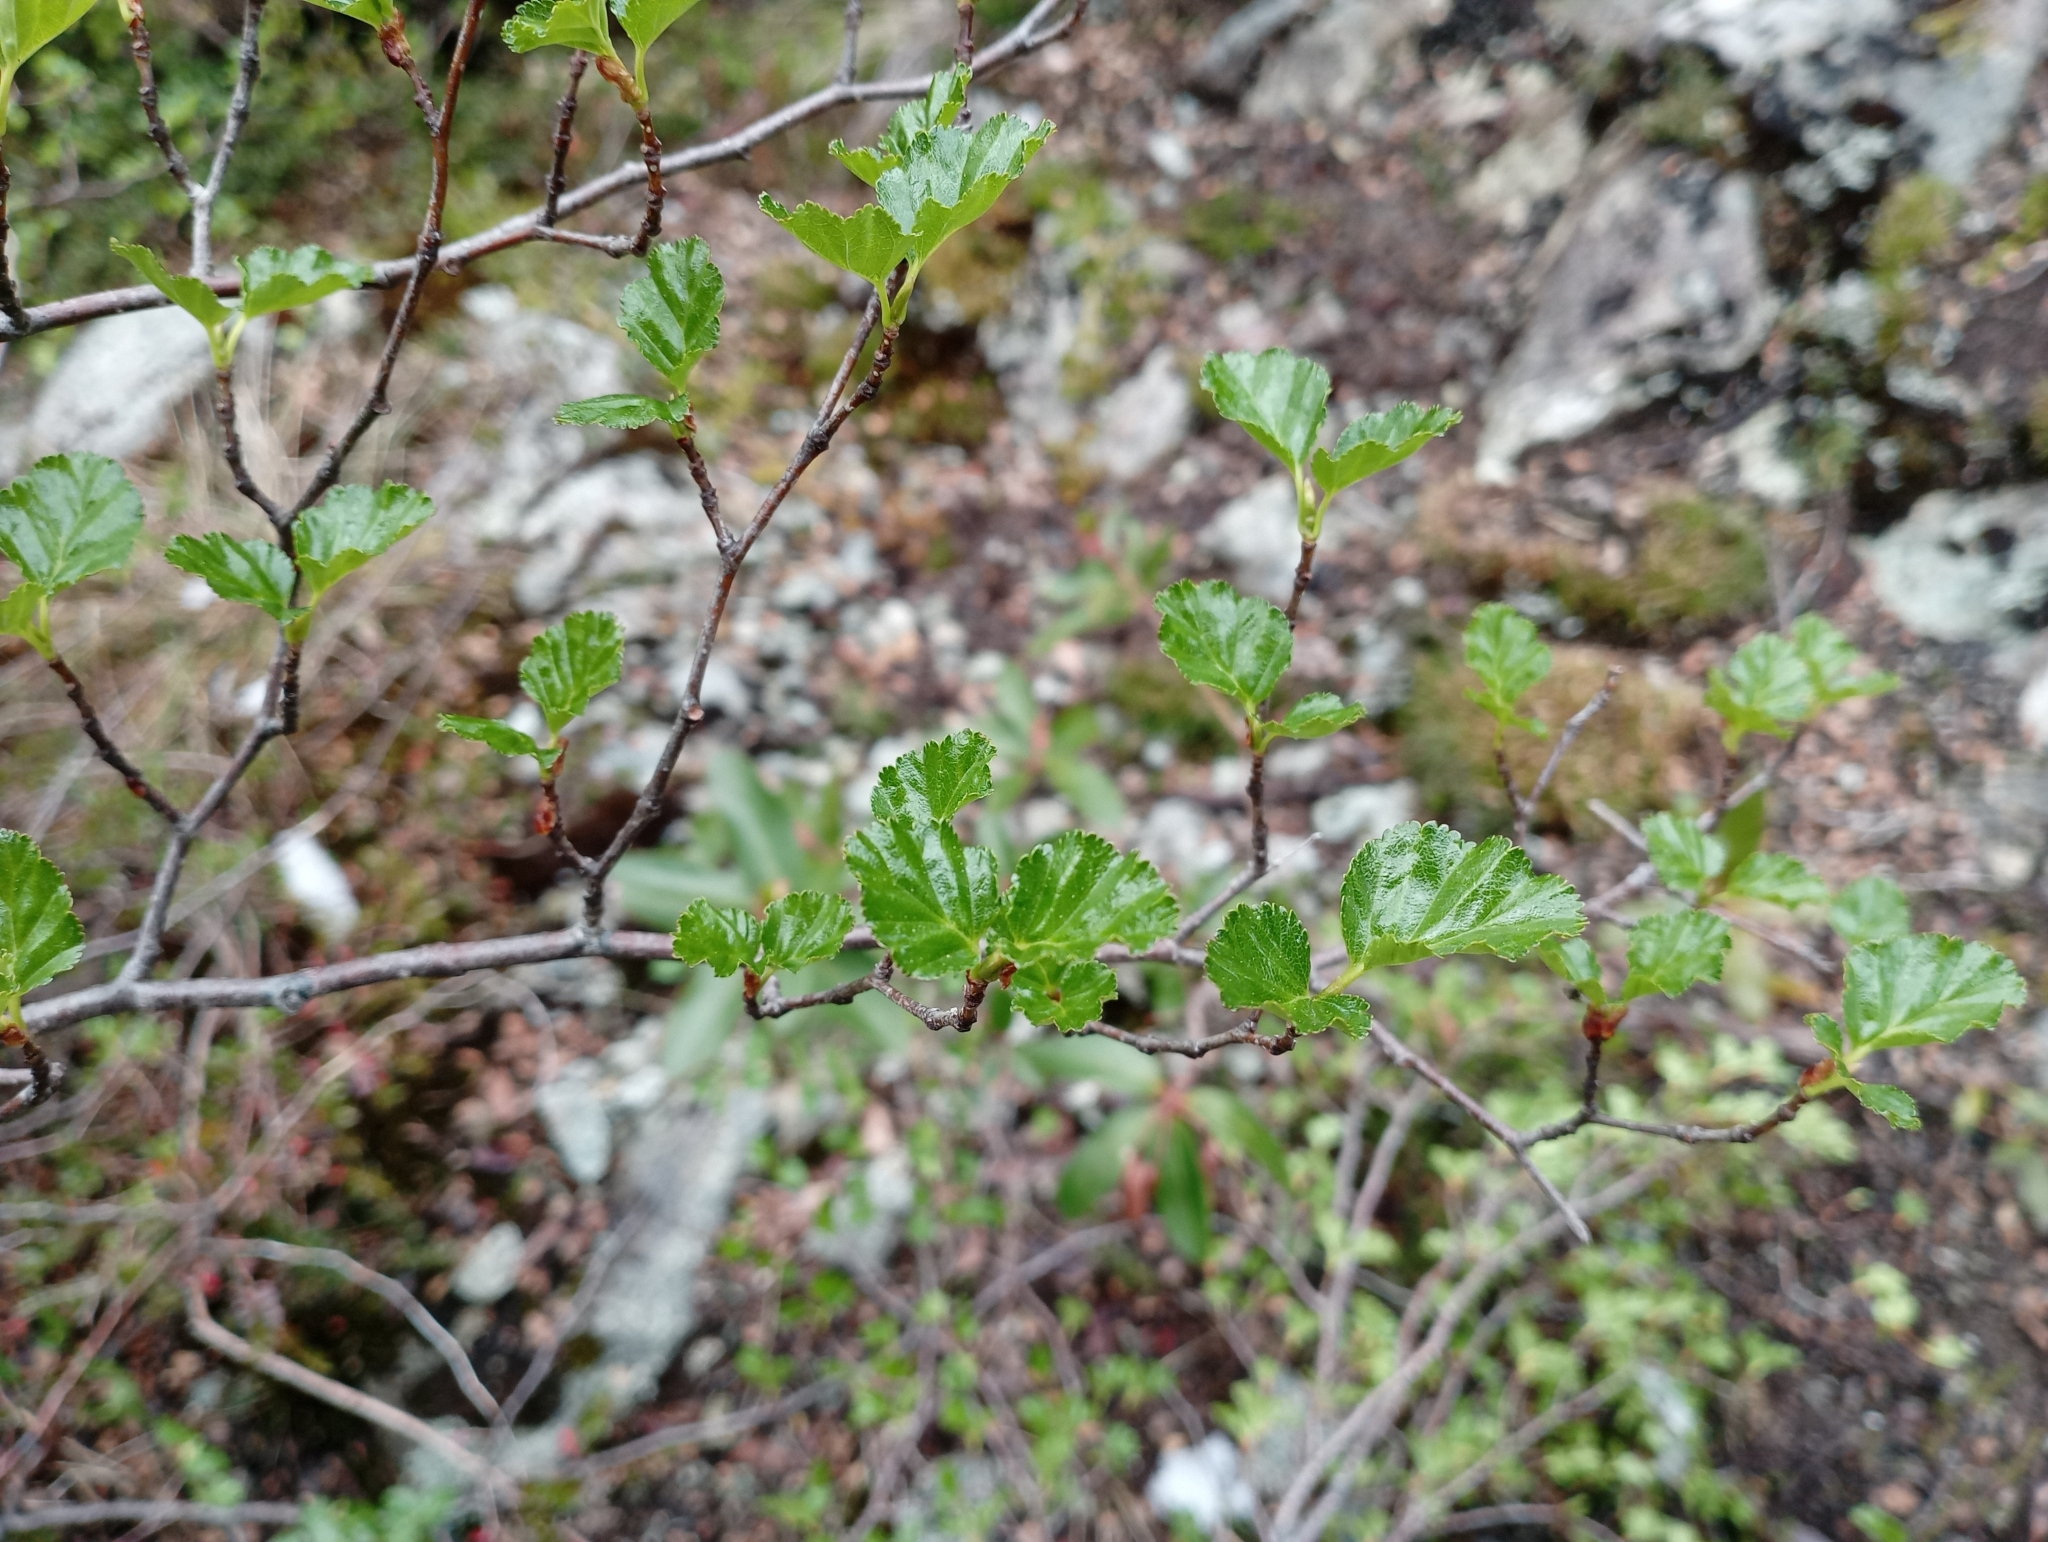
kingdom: Plantae
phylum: Tracheophyta
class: Magnoliopsida
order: Fagales
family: Nothofagaceae
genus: Nothofagus
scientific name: Nothofagus antarctica
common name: Antarctic beech
